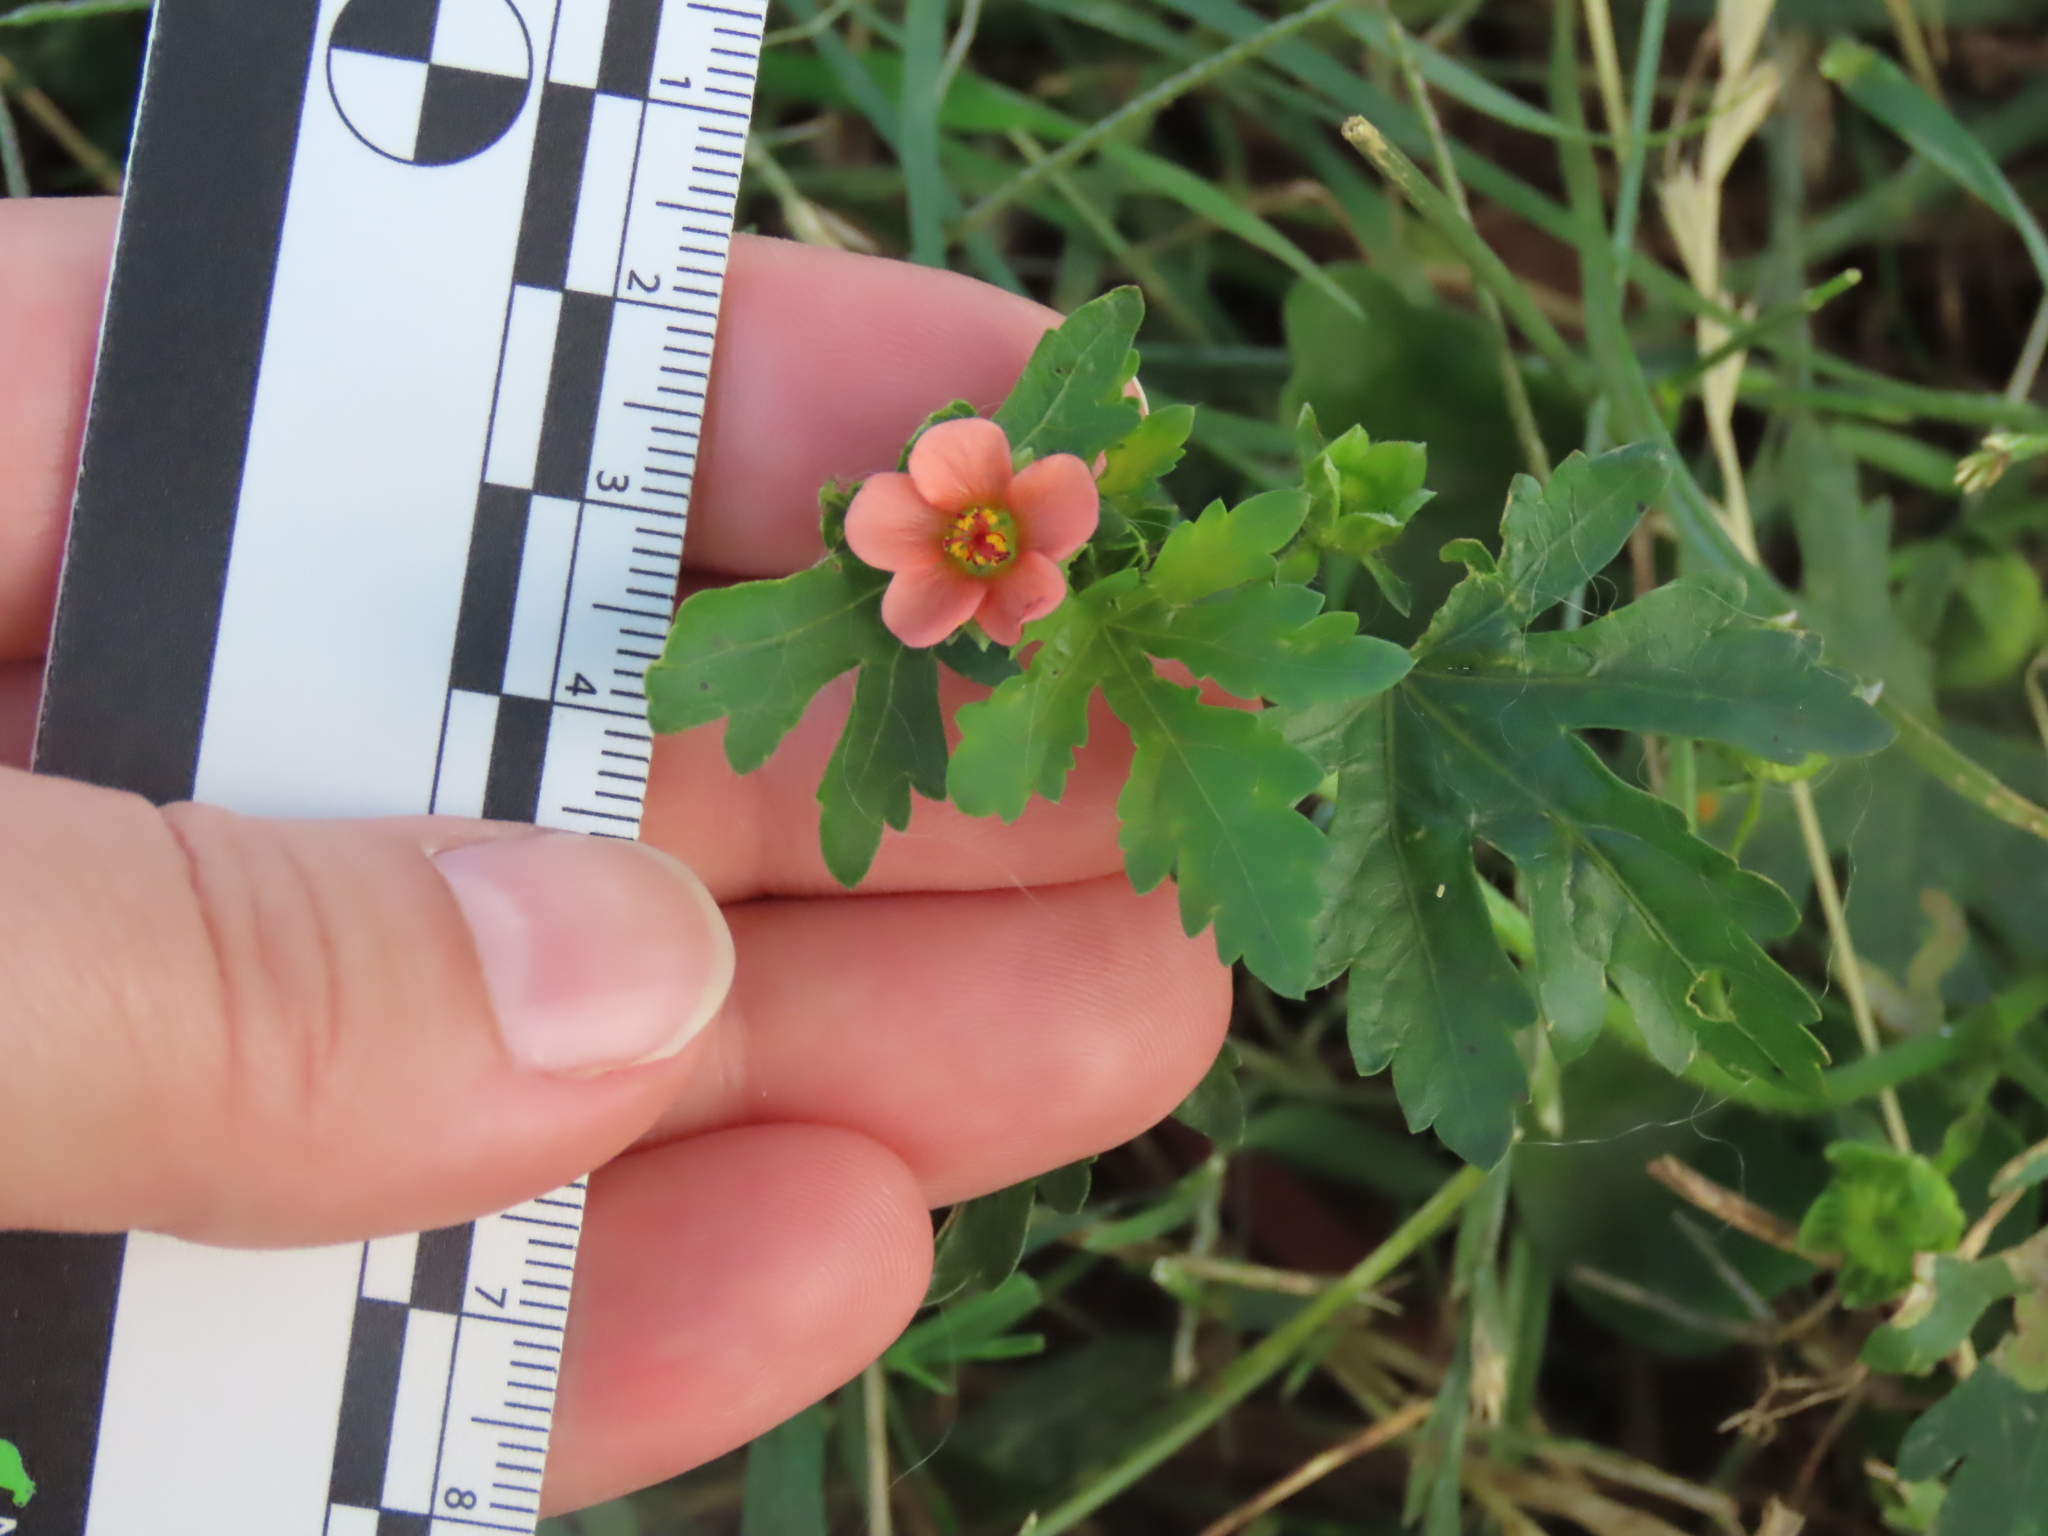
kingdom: Plantae
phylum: Tracheophyta
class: Magnoliopsida
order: Malvales
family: Malvaceae
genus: Modiola
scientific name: Modiola caroliniana
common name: Carolina bristlemallow
